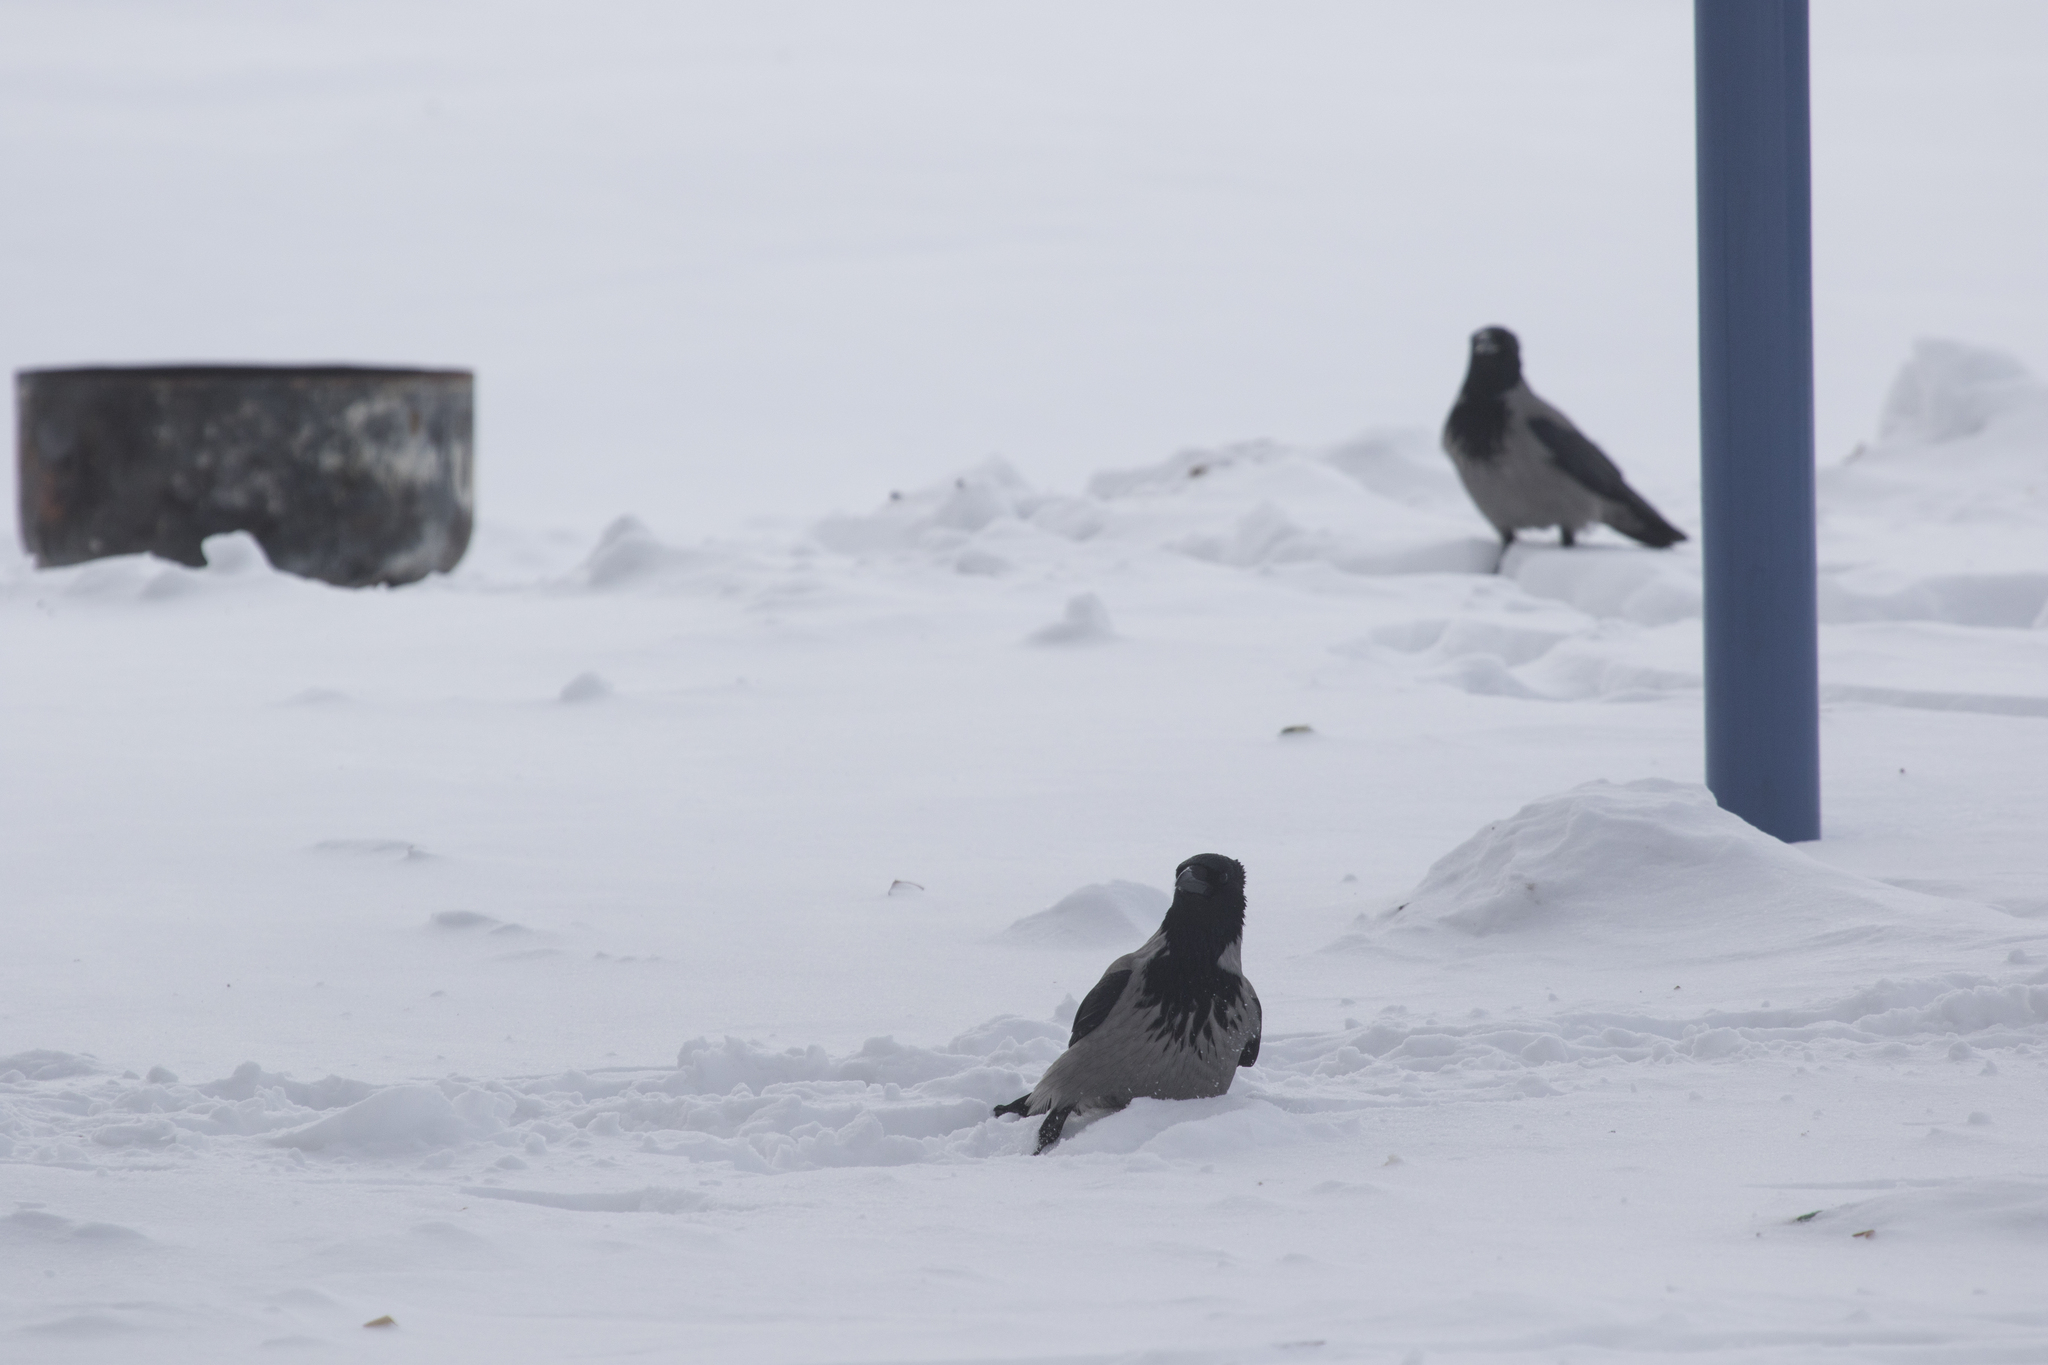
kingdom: Animalia
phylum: Chordata
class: Aves
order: Passeriformes
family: Corvidae
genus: Corvus
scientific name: Corvus cornix
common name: Hooded crow
